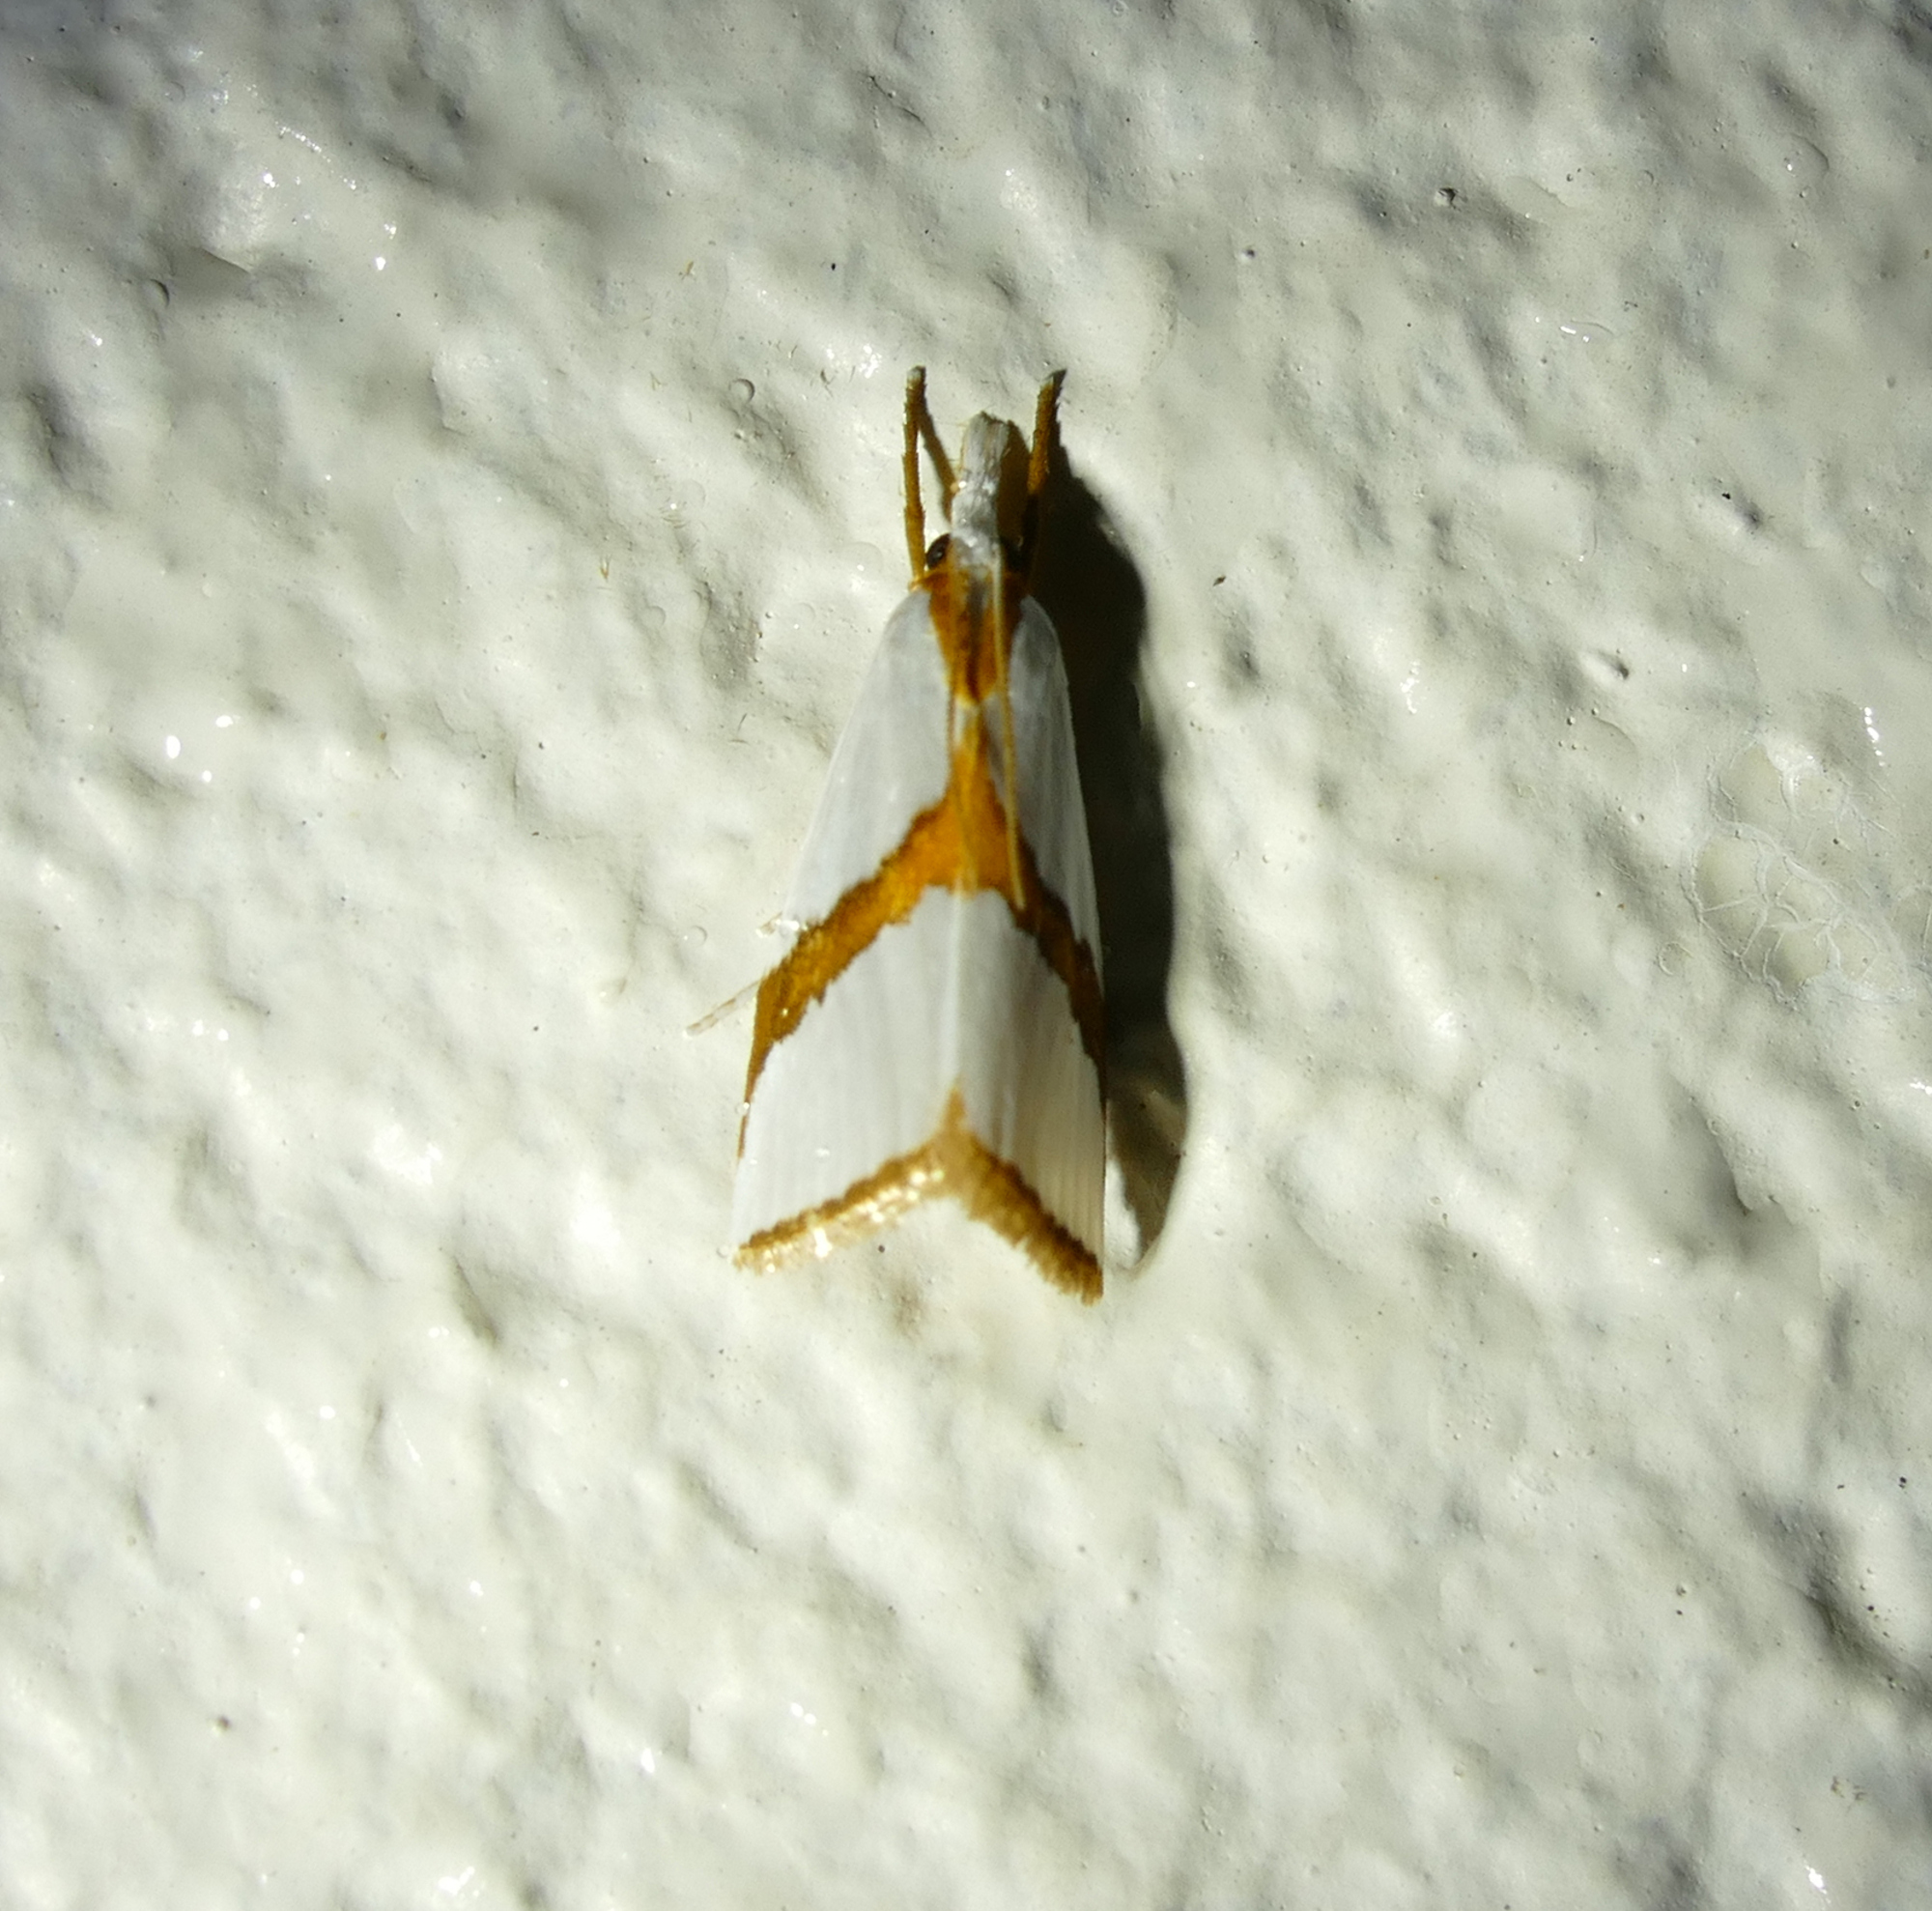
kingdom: Animalia
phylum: Arthropoda
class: Insecta
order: Lepidoptera
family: Crambidae
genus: Vaxi
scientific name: Vaxi critica
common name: Straight-lined vaxi moth
